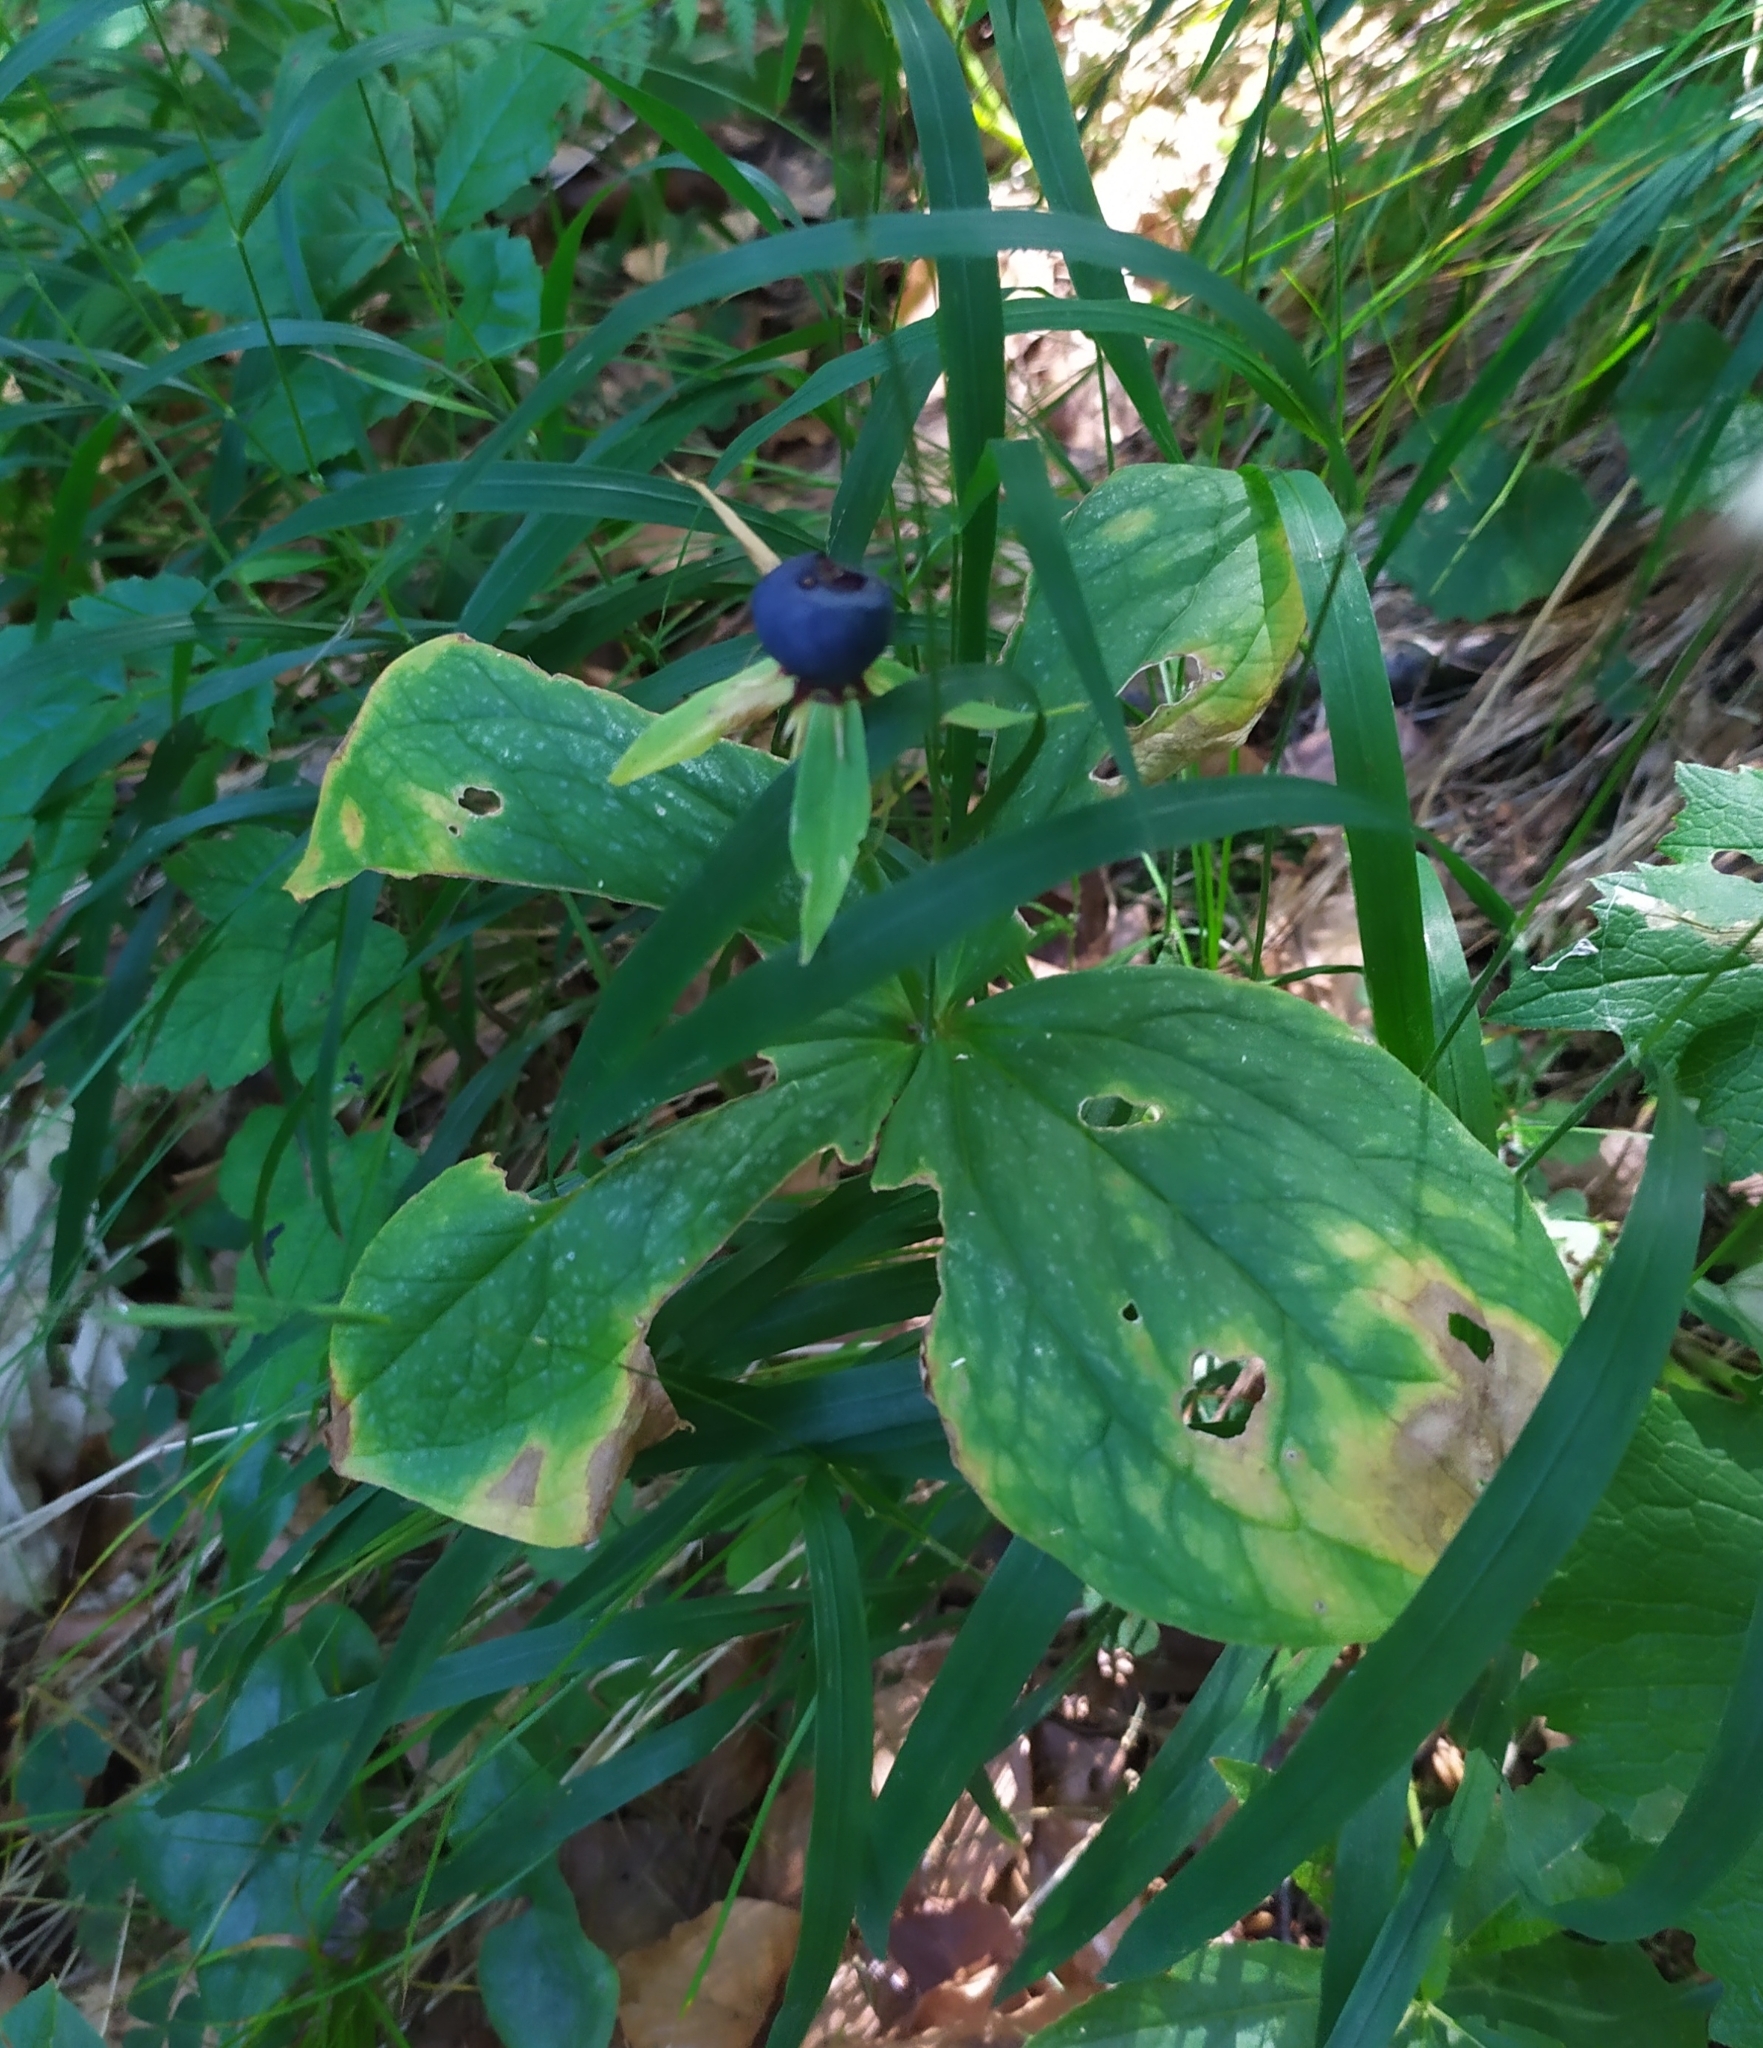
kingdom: Plantae
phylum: Tracheophyta
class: Liliopsida
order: Liliales
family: Melanthiaceae
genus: Paris
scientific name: Paris quadrifolia
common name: Herb-paris
